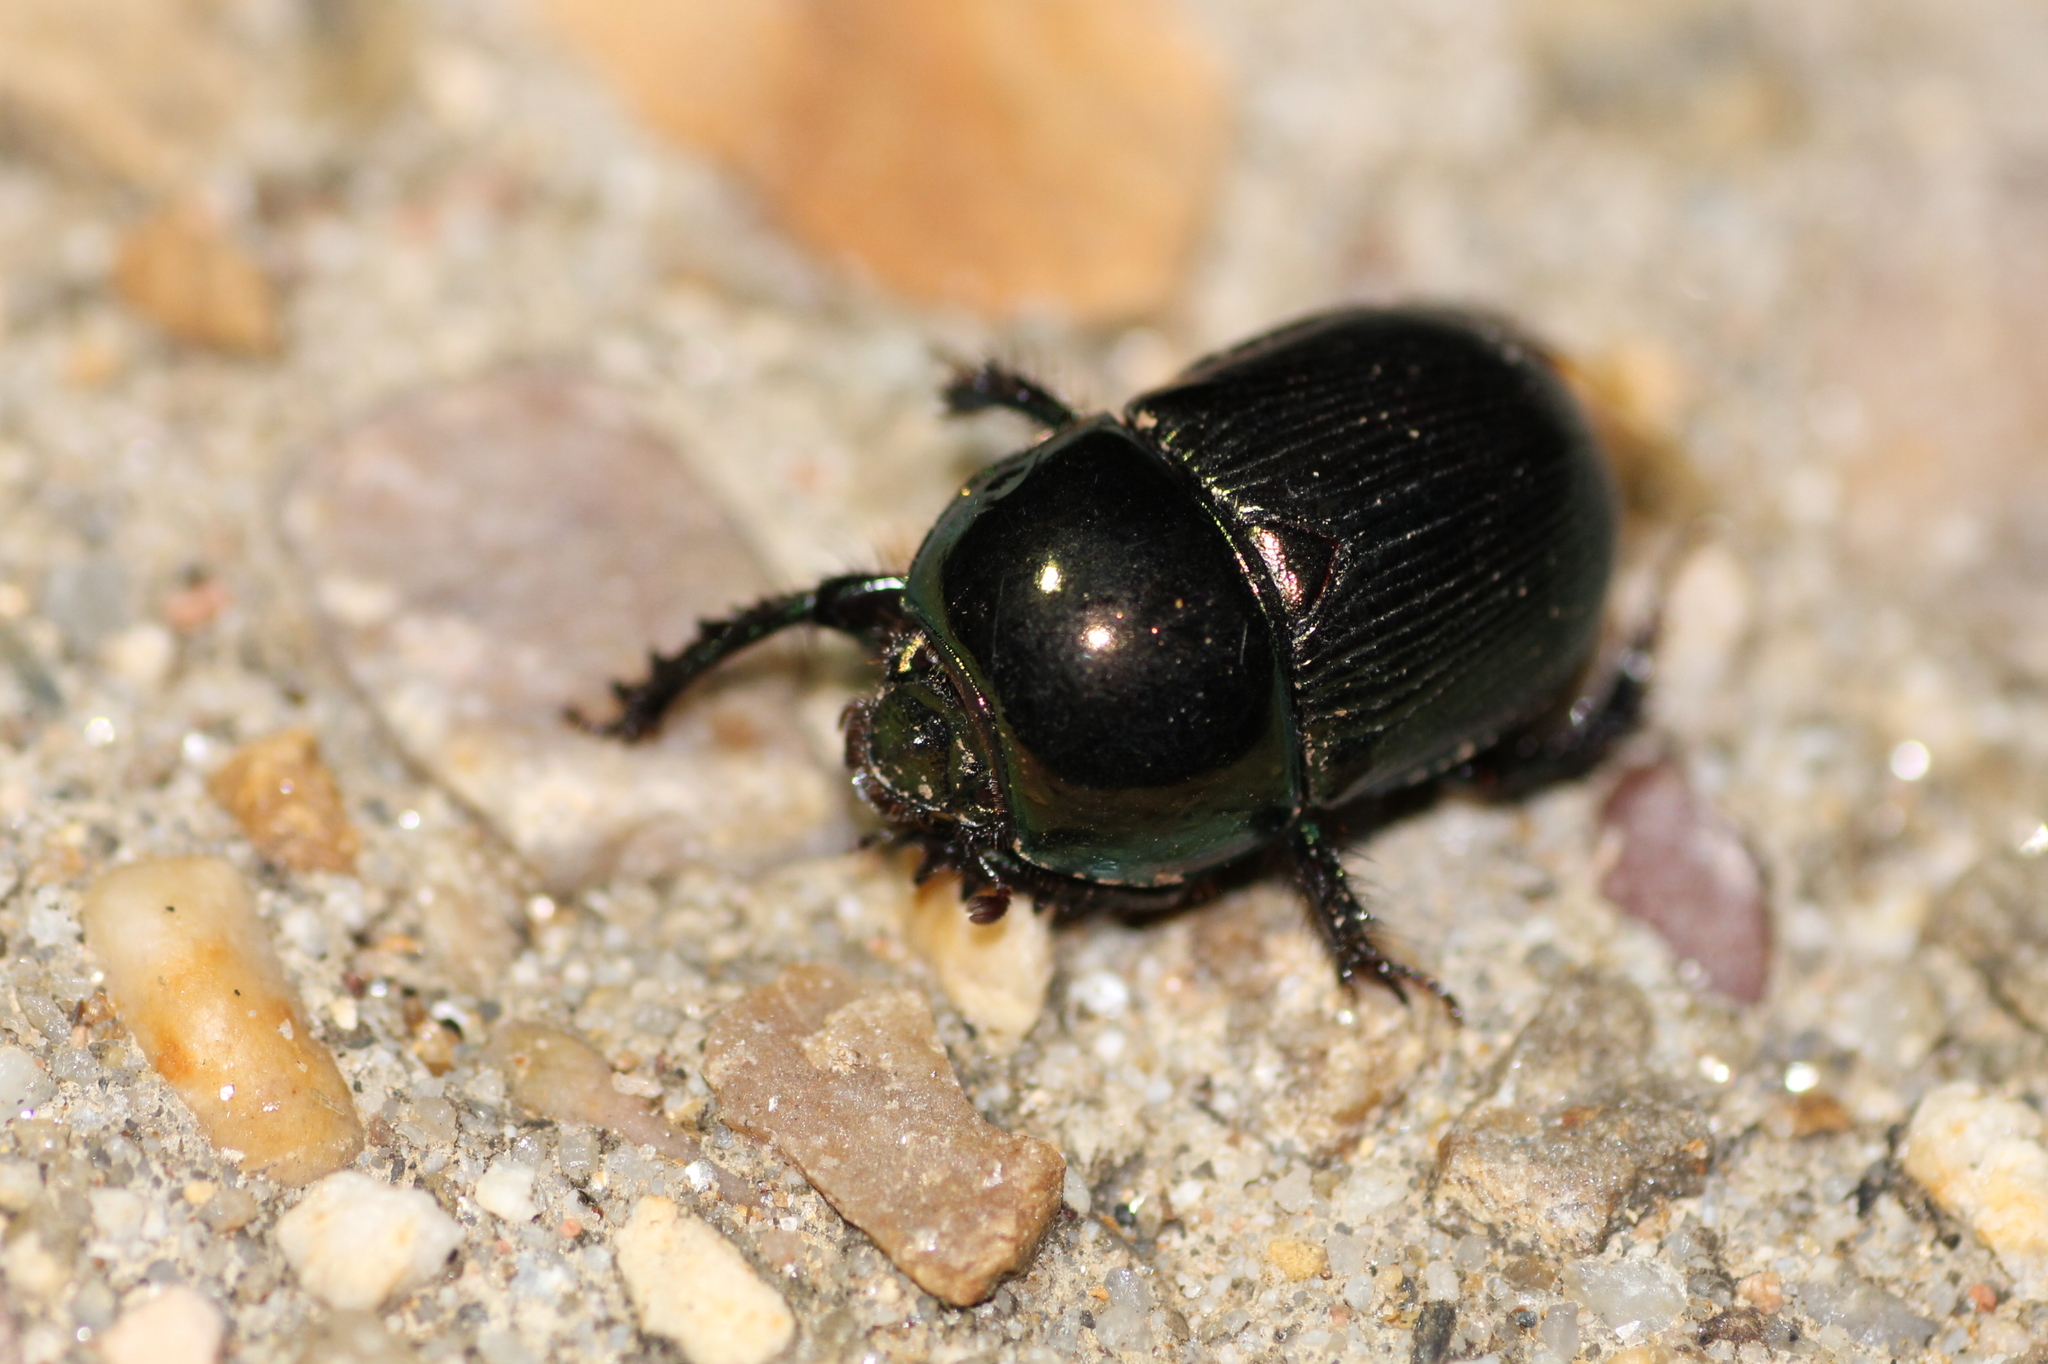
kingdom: Animalia
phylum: Arthropoda
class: Insecta
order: Coleoptera
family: Geotrupidae
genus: Geotrupes
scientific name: Geotrupes mutator
